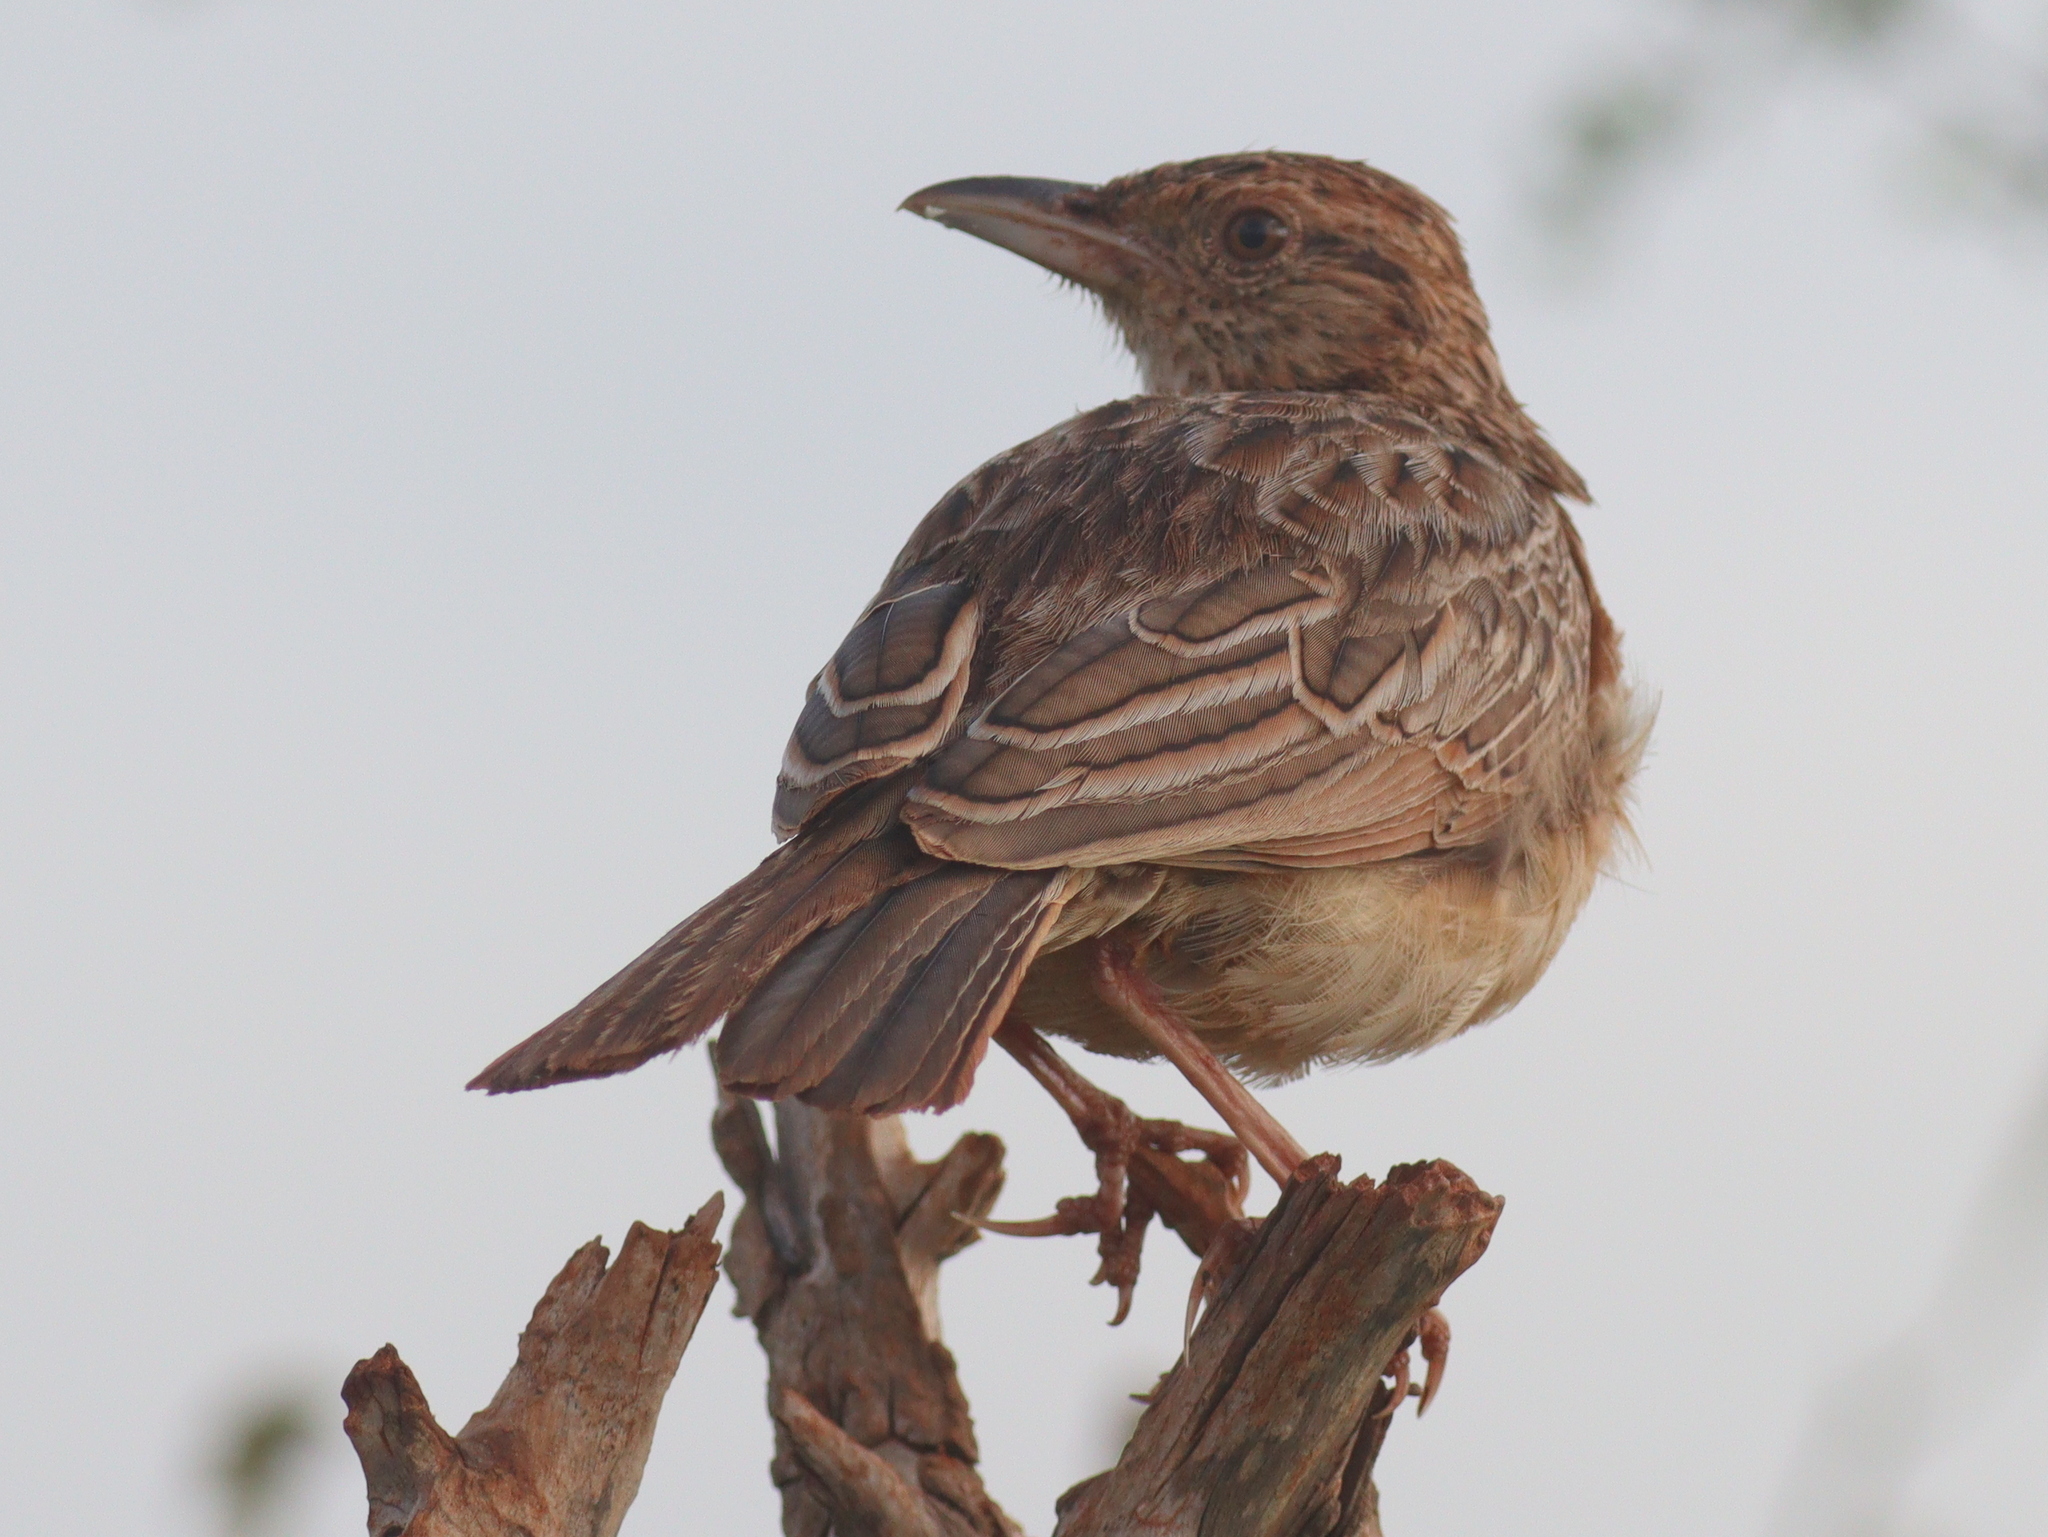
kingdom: Animalia
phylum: Chordata
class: Aves
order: Passeriformes
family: Alaudidae
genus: Mirafra
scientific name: Mirafra hypermetra
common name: Red-winged lark
